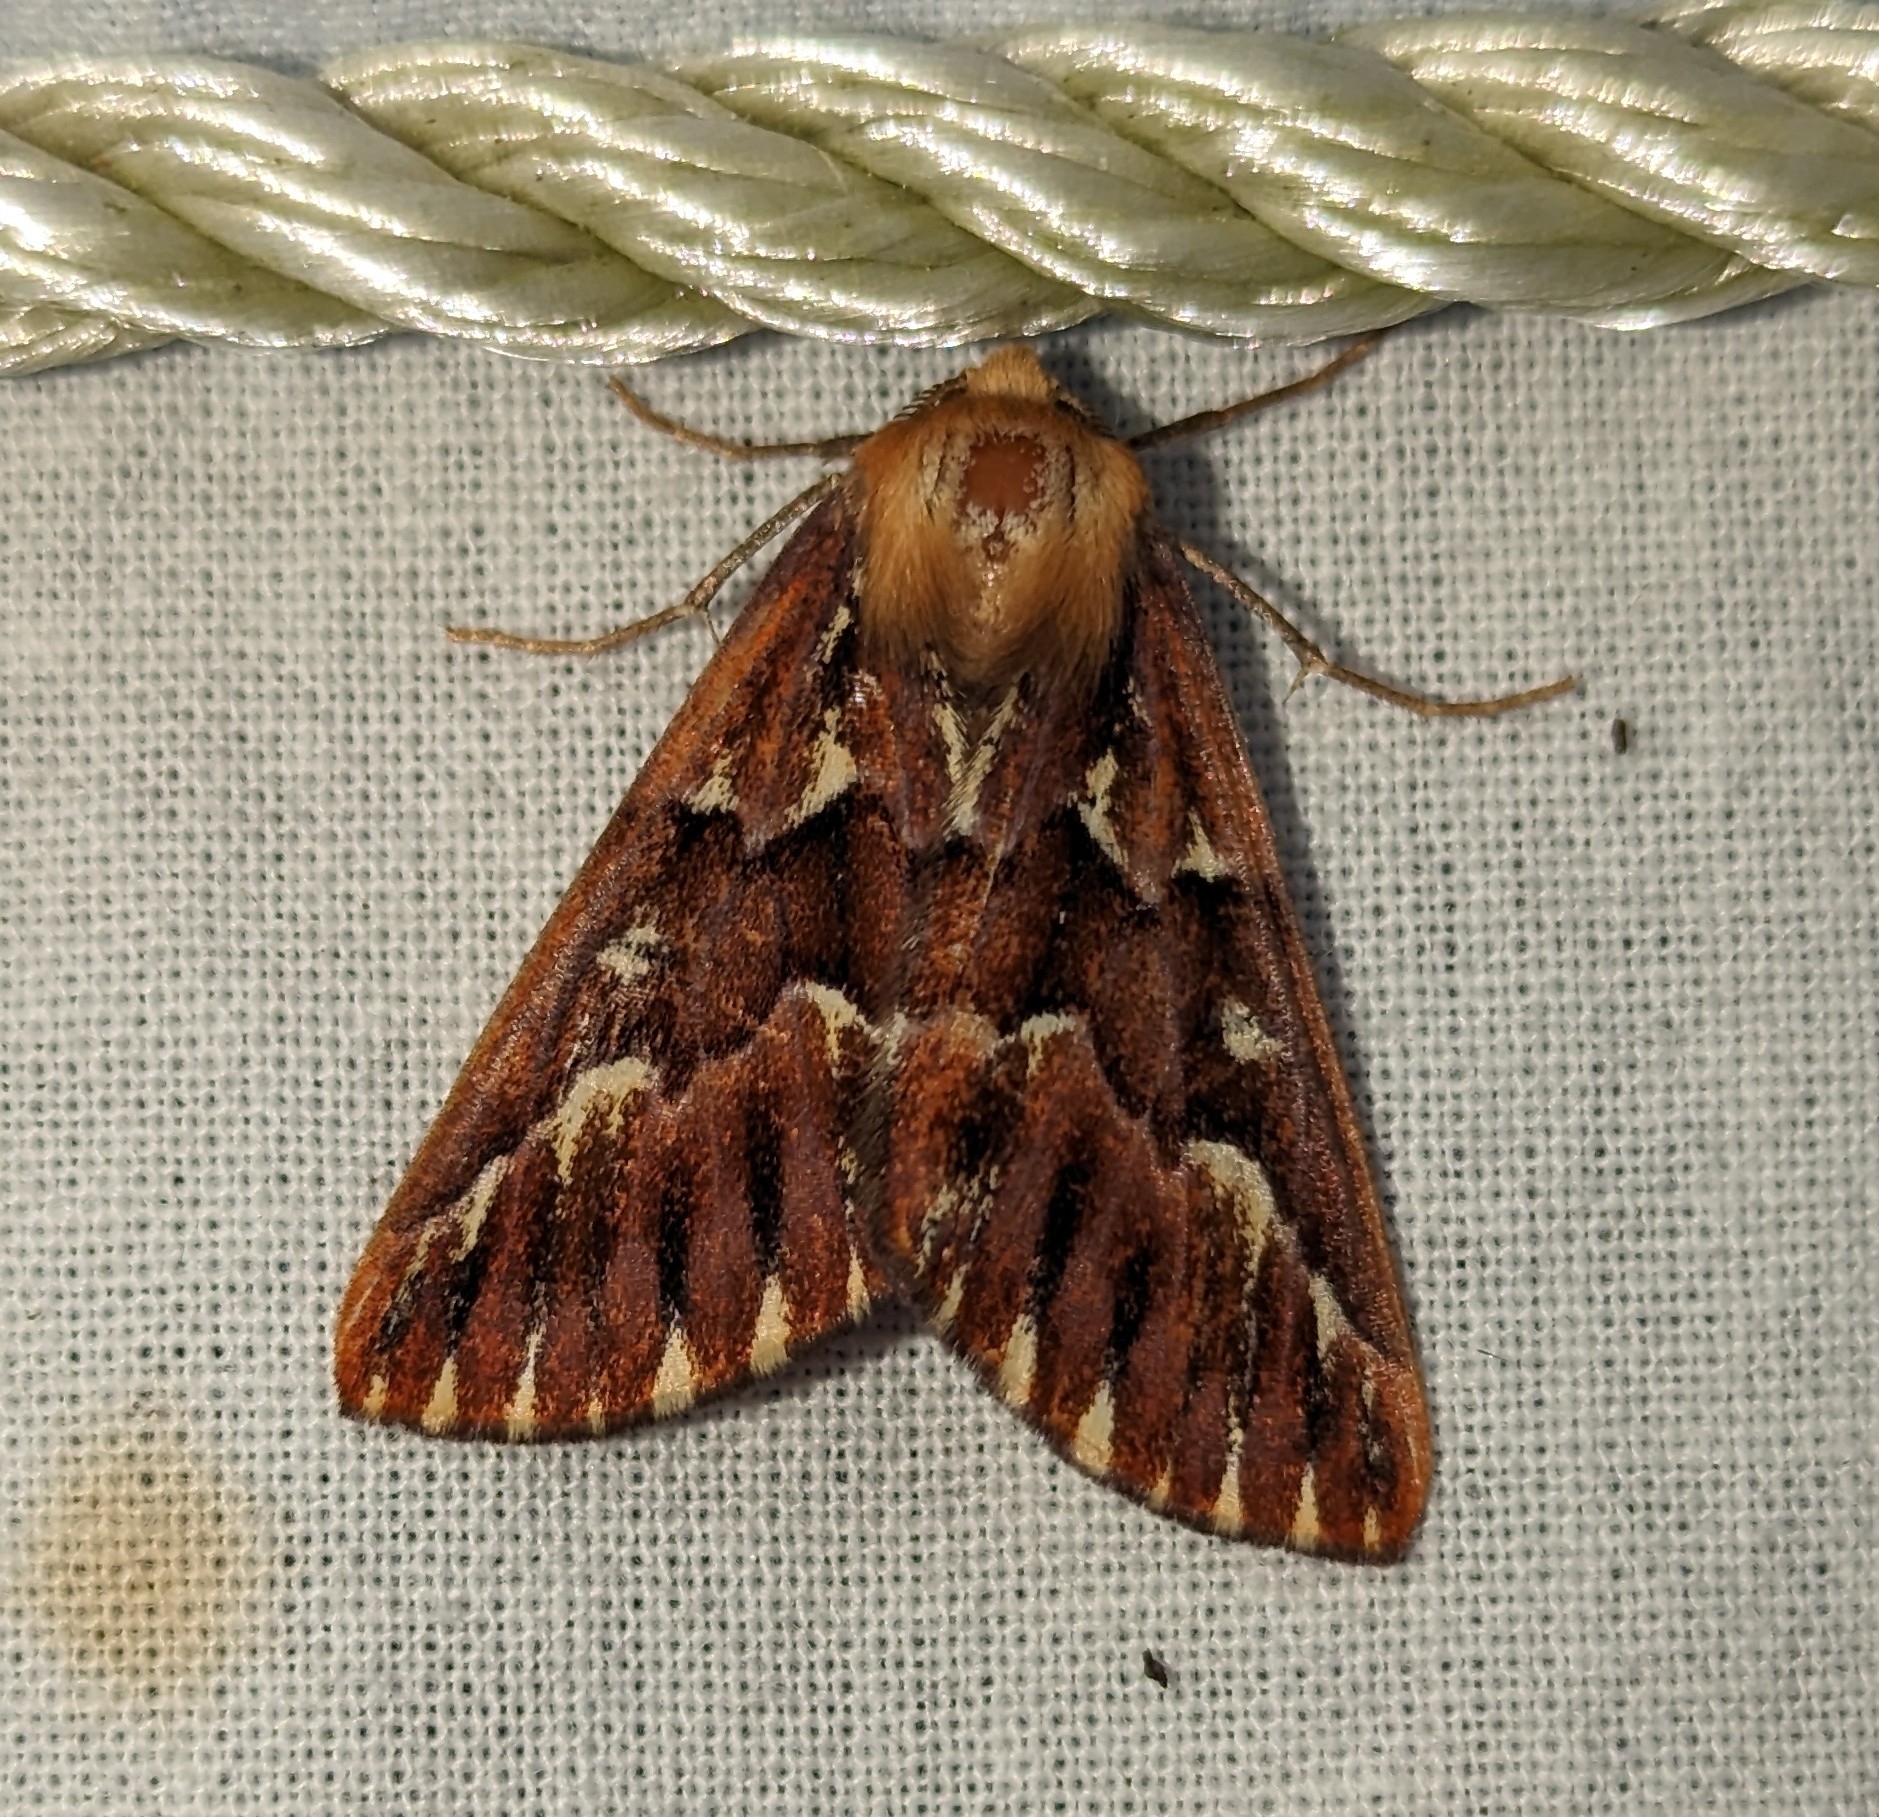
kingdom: Animalia
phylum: Arthropoda
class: Insecta
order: Lepidoptera
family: Geometridae
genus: Caripeta
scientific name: Caripeta aequaliaria
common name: Red girdle moth
